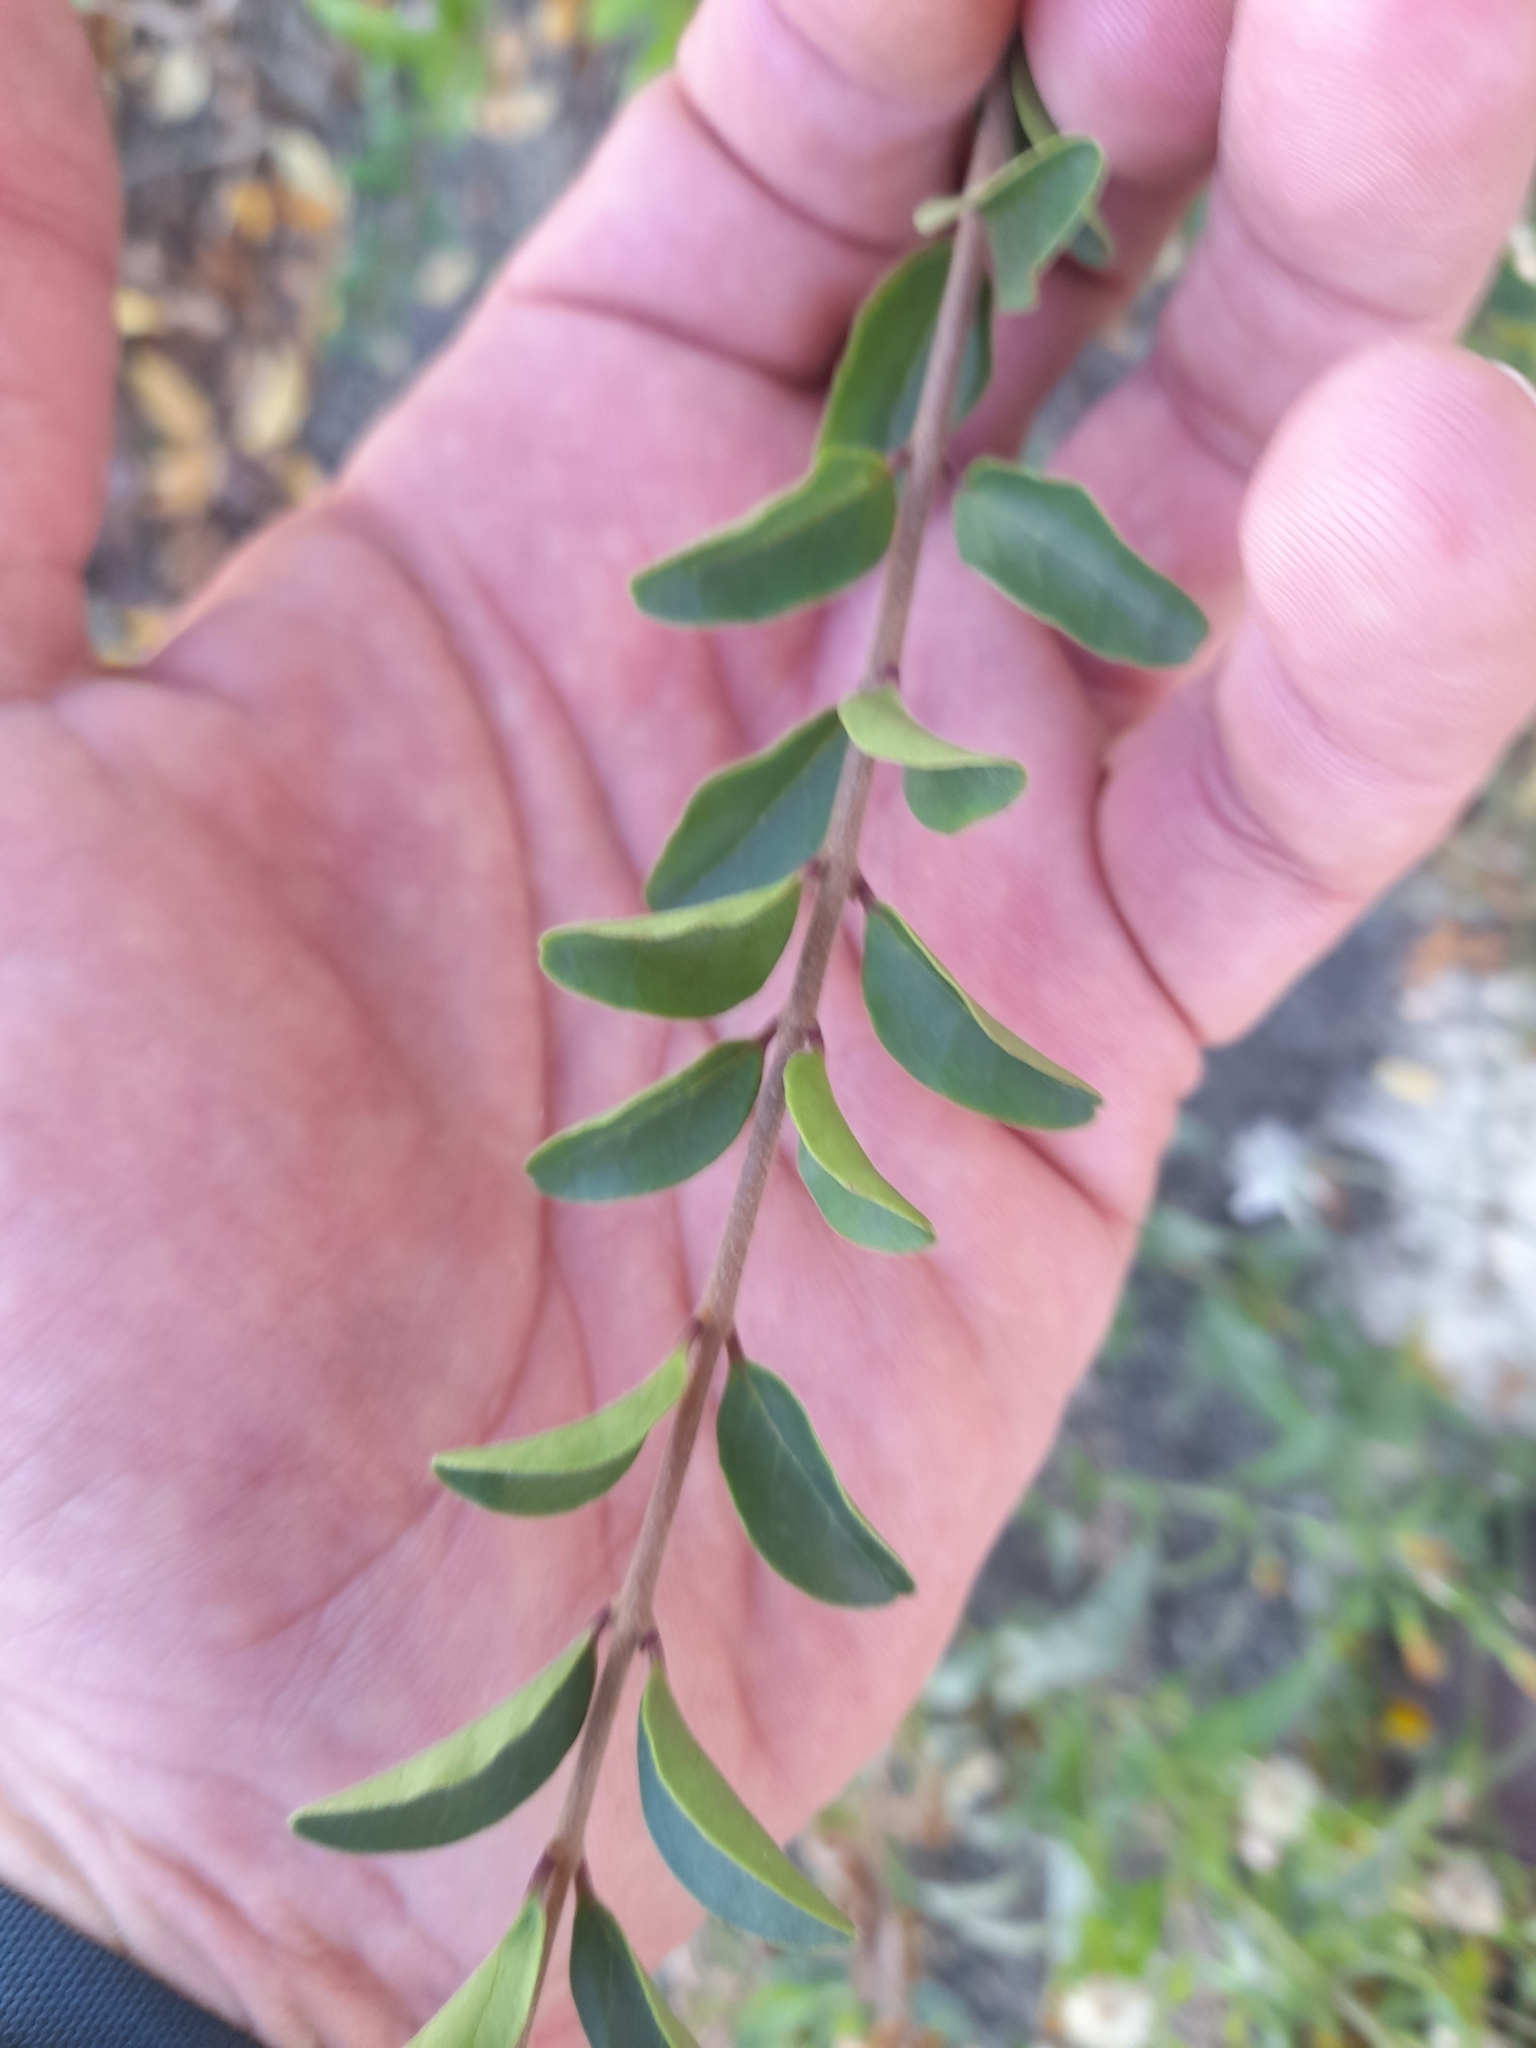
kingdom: Plantae
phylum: Tracheophyta
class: Magnoliopsida
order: Lamiales
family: Oleaceae
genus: Ligustrum
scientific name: Ligustrum sinense
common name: Chinese privet
